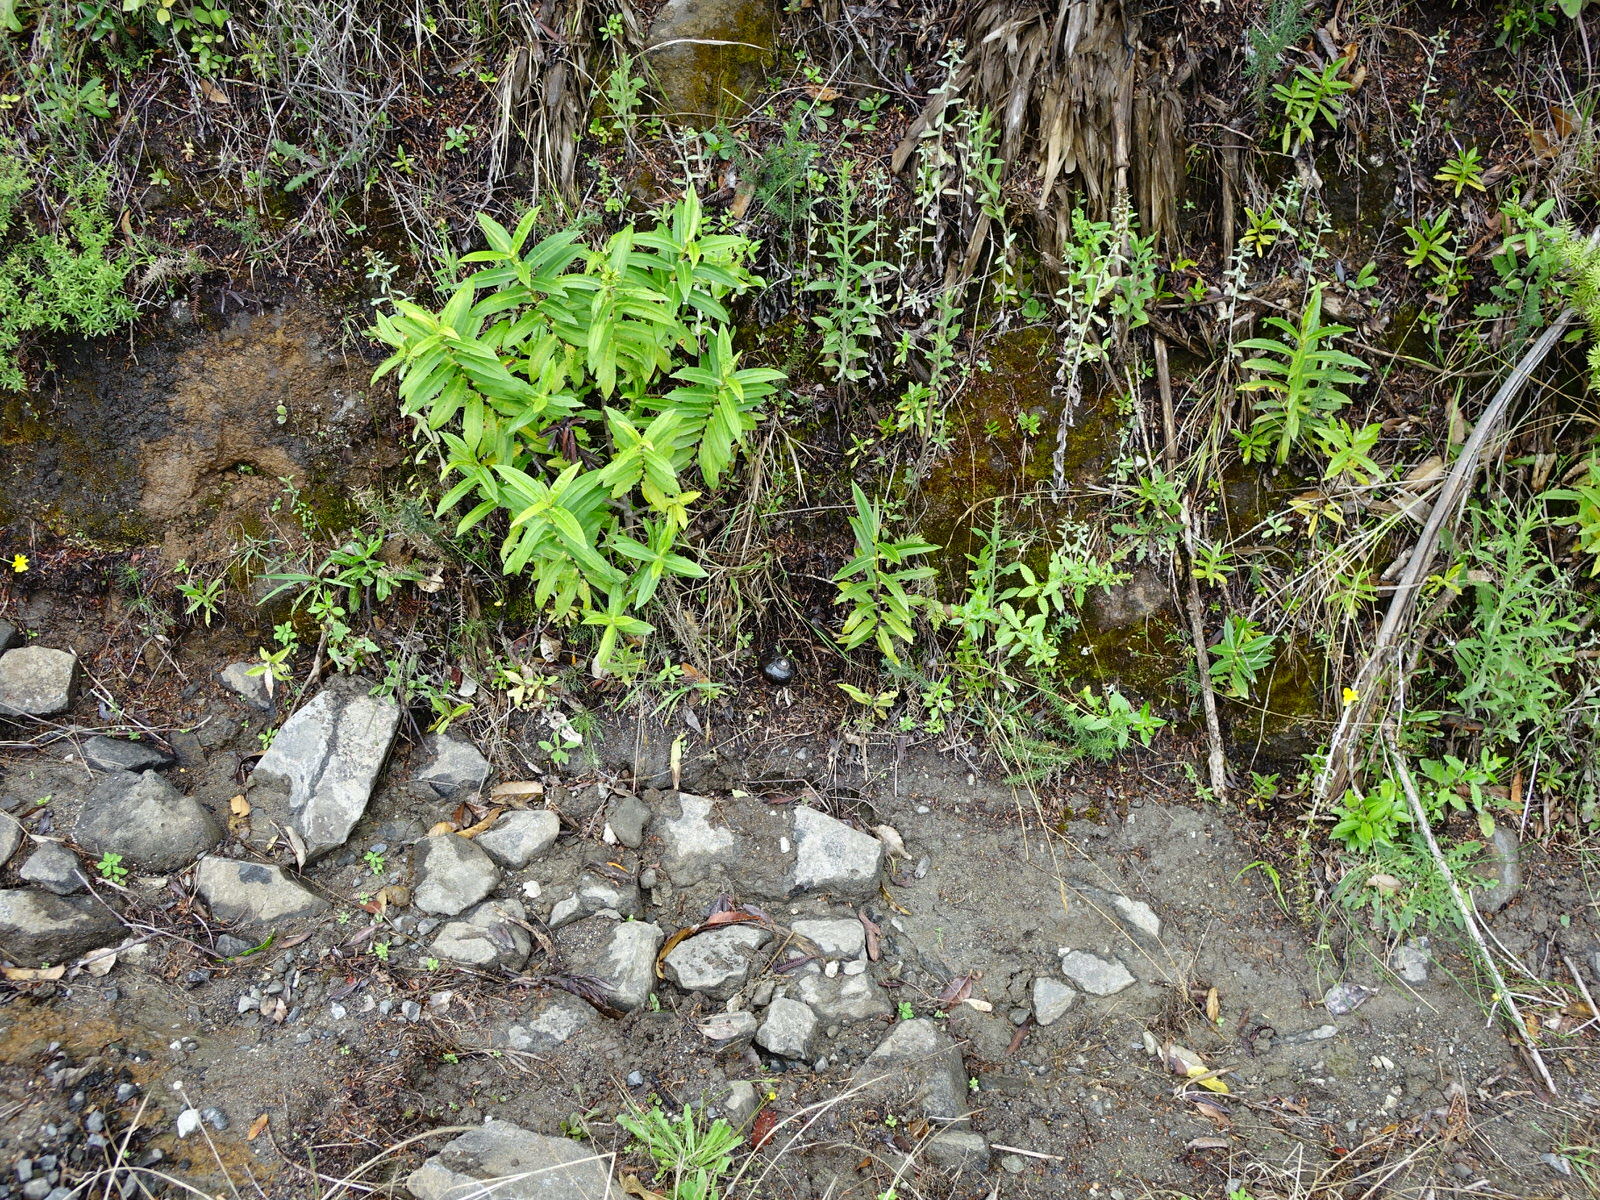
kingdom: Animalia
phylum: Mollusca
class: Gastropoda
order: Stylommatophora
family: Rhytididae
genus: Paryphanta
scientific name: Paryphanta busbyi
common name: Kauri snail
